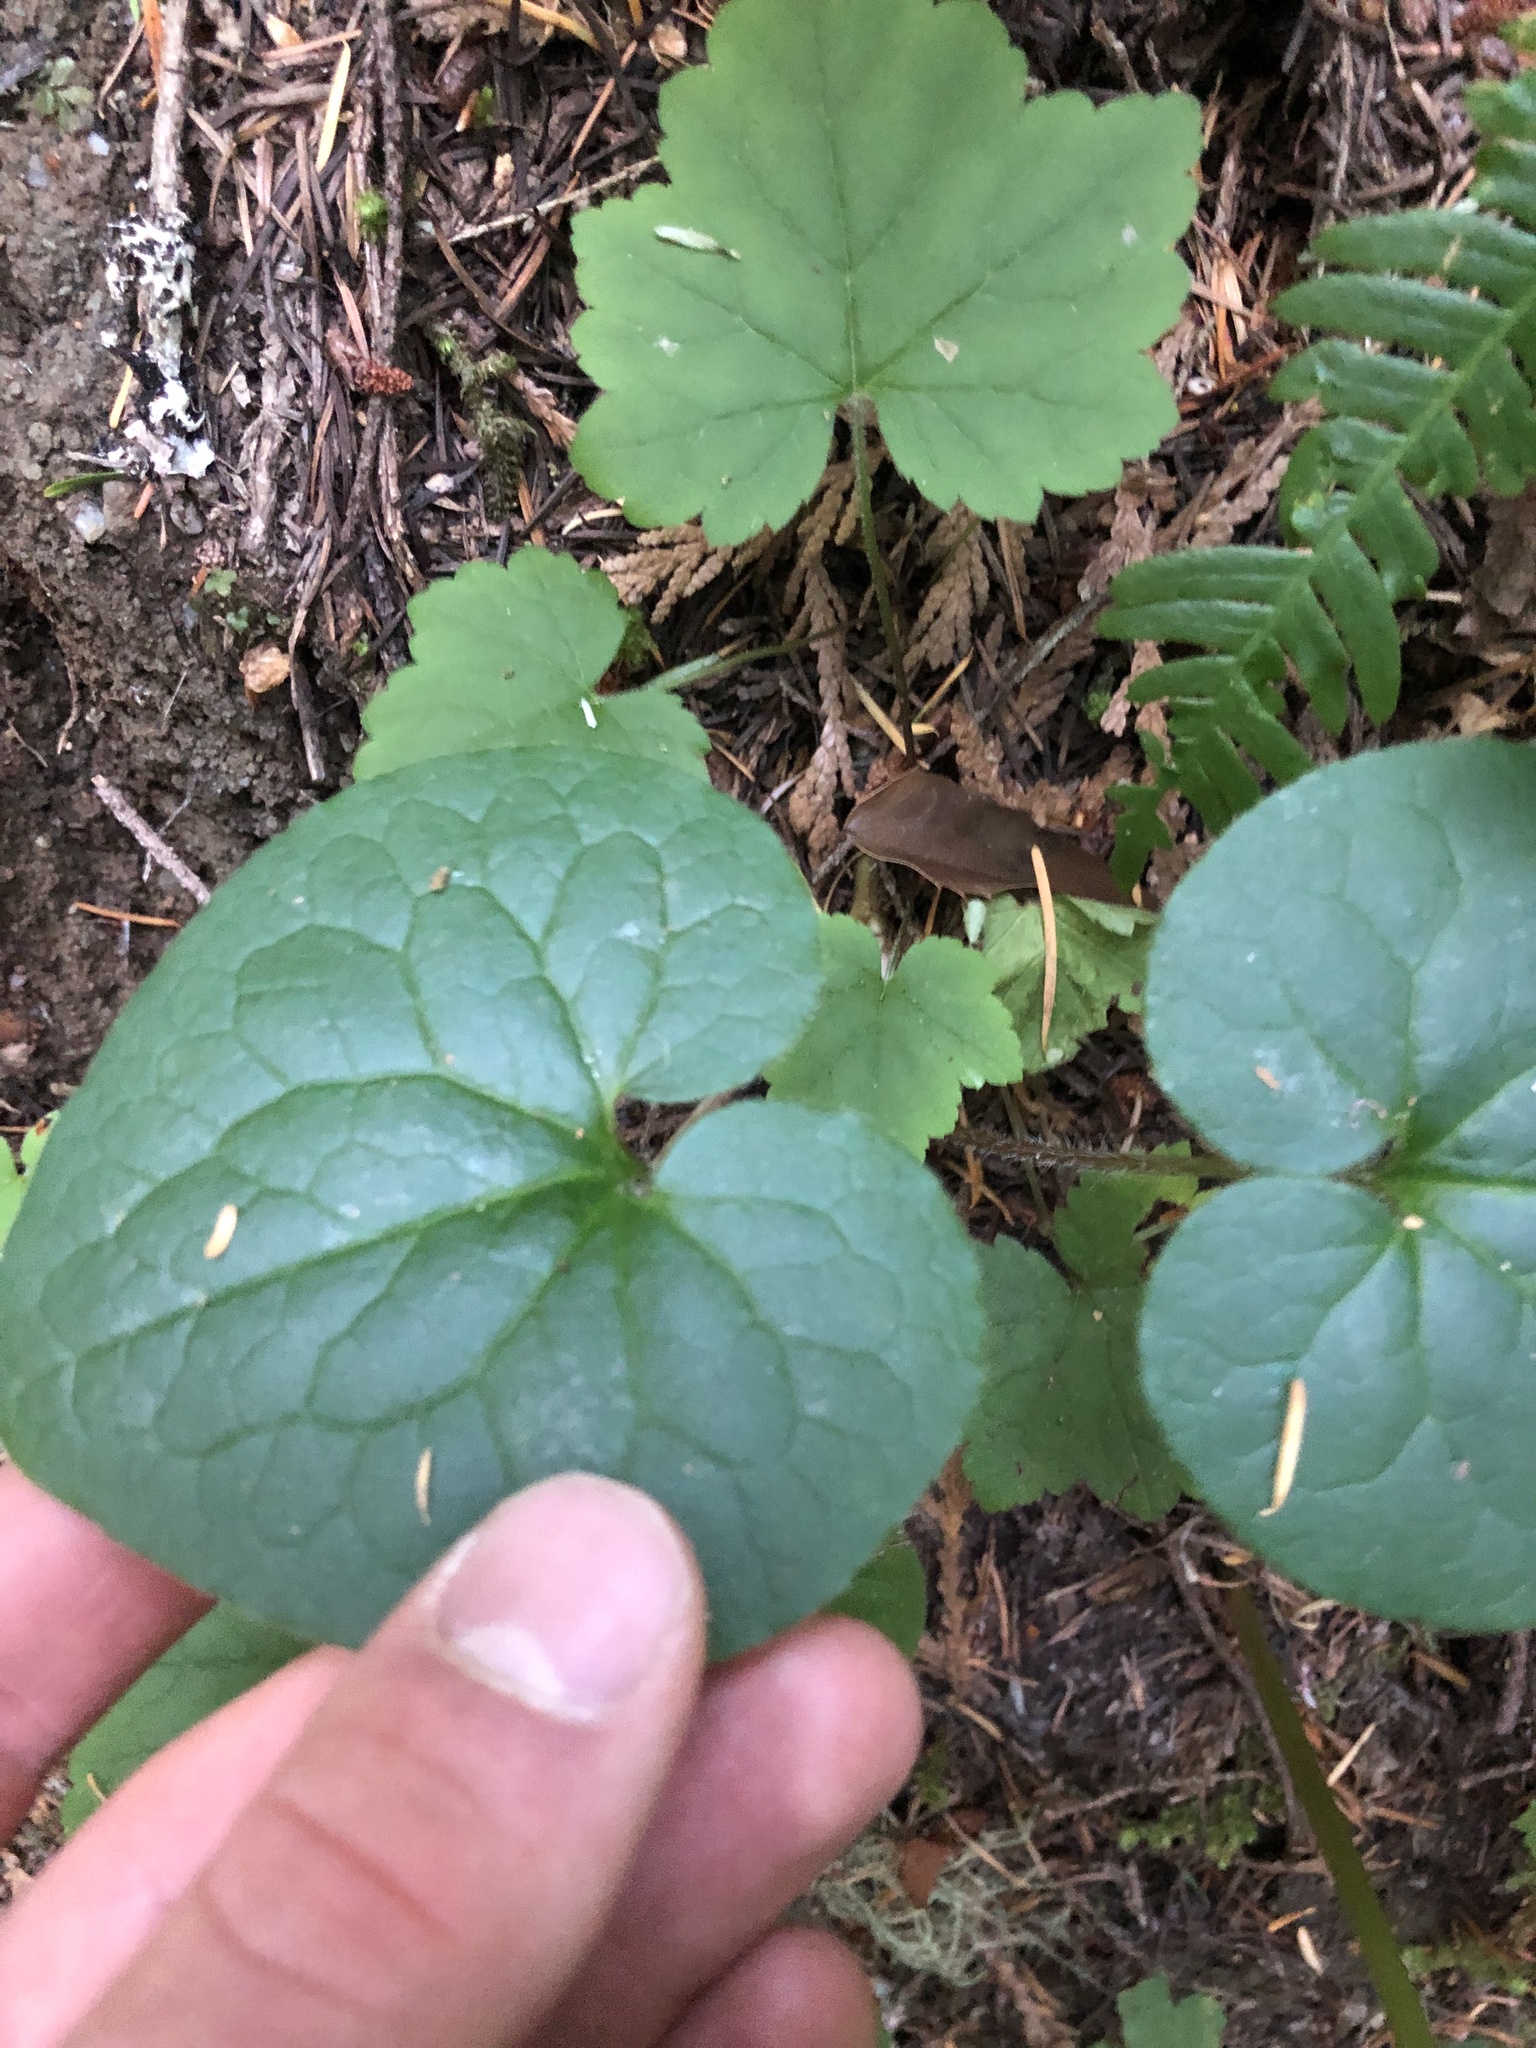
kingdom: Plantae
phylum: Tracheophyta
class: Magnoliopsida
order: Piperales
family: Aristolochiaceae
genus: Asarum
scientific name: Asarum caudatum
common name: Wild ginger
